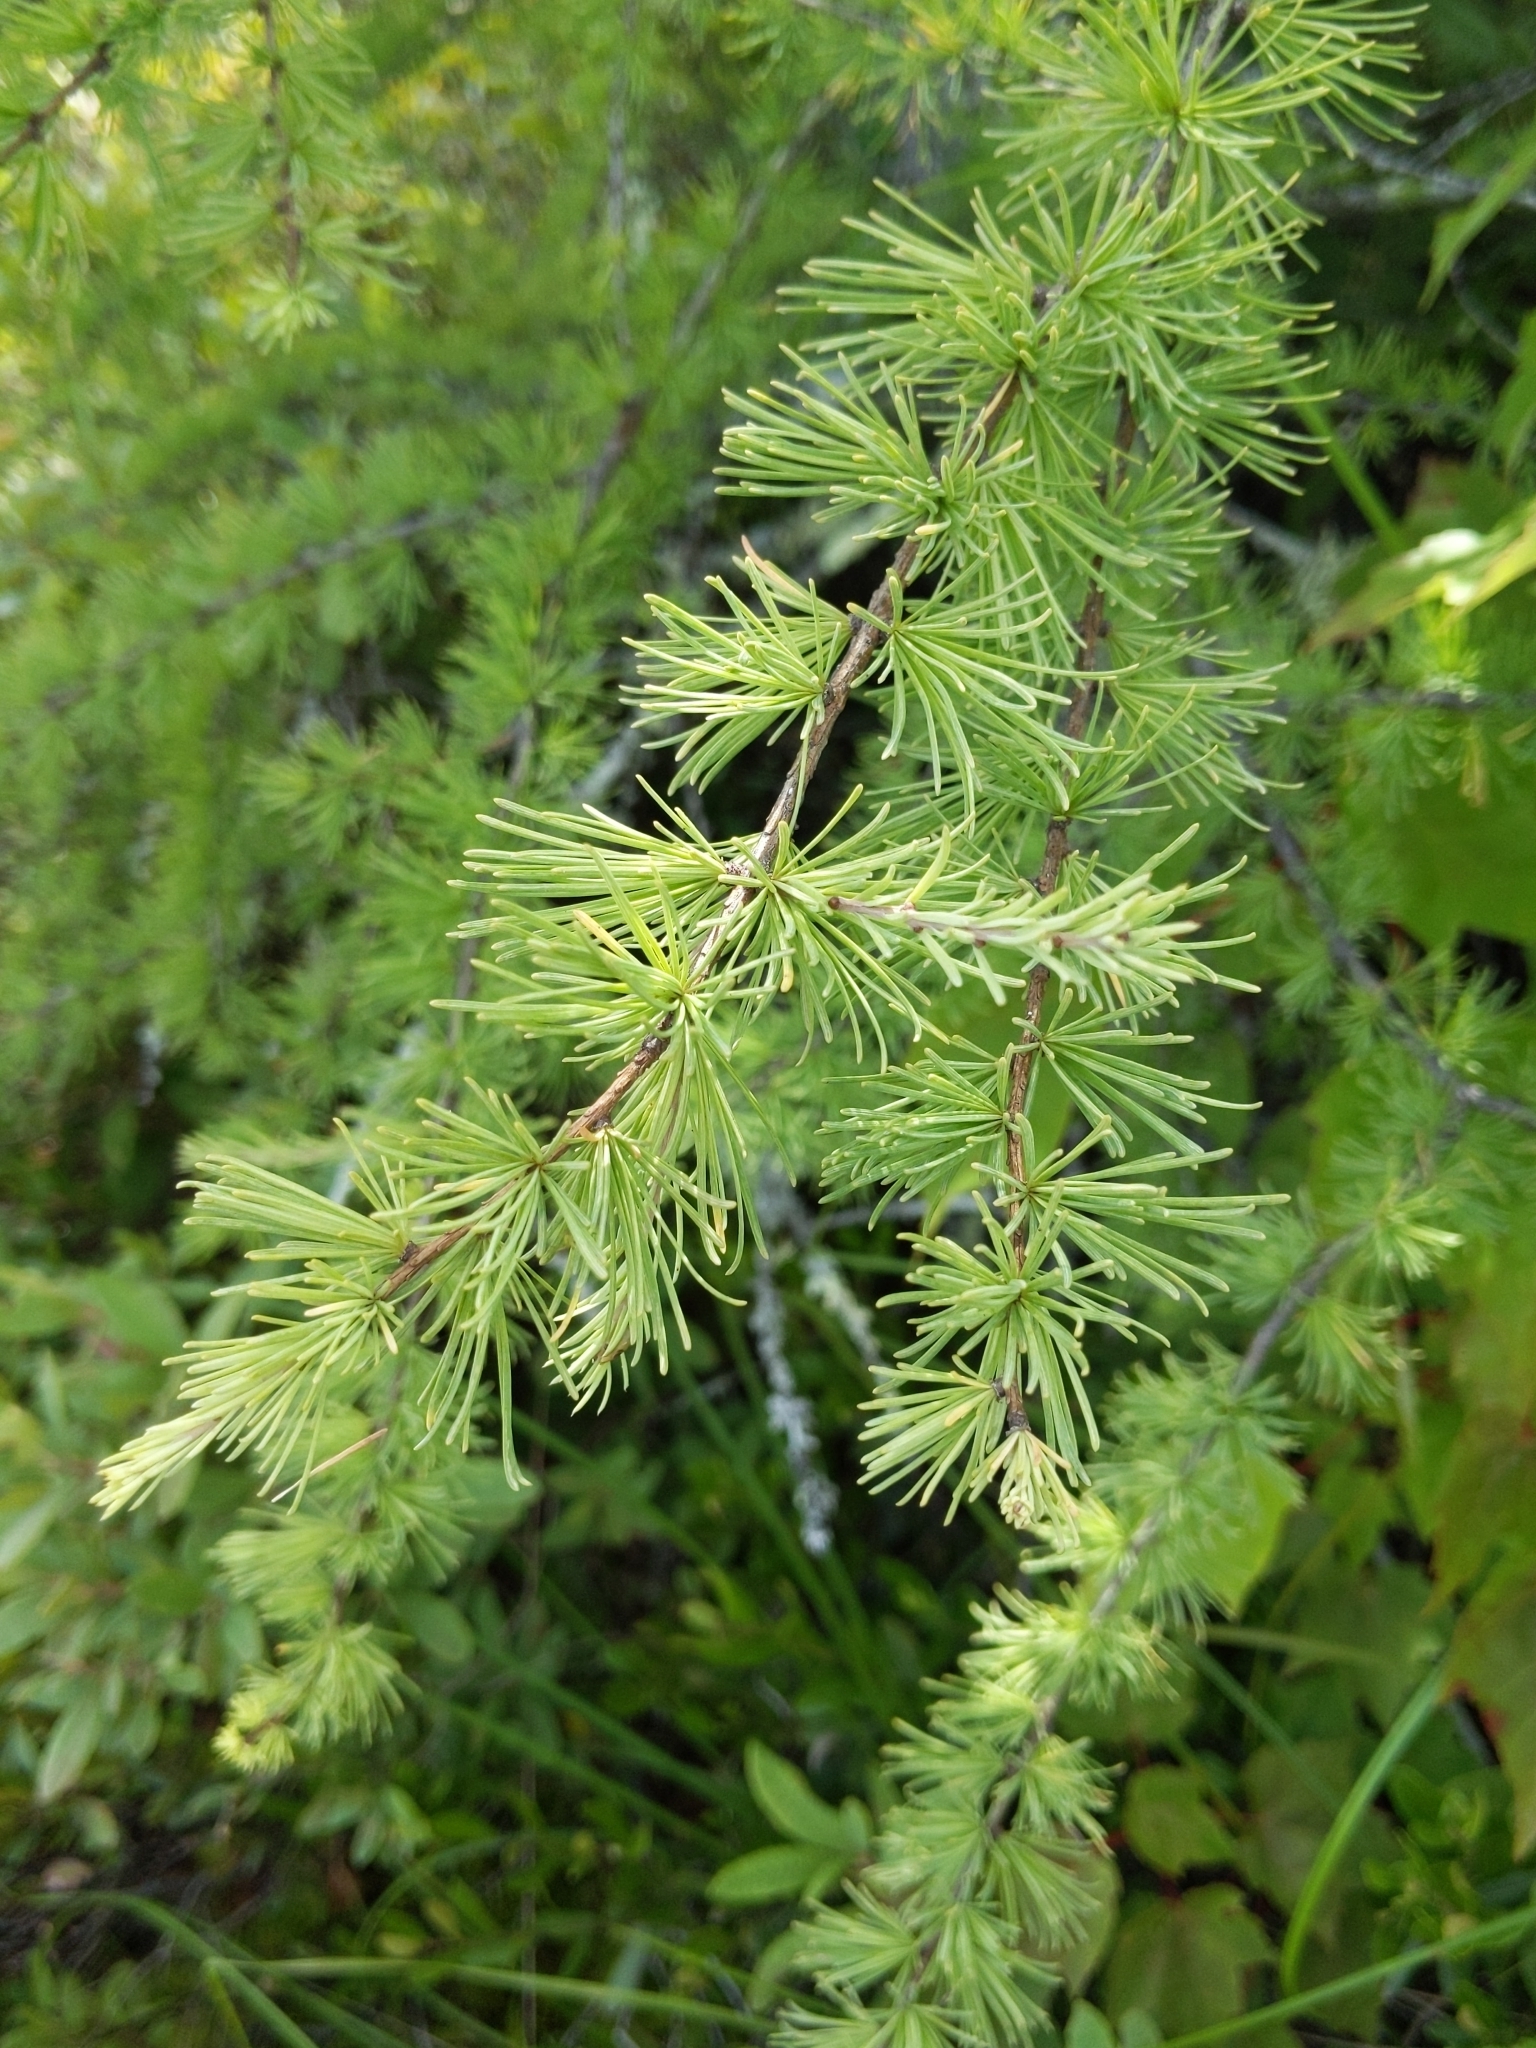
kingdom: Plantae
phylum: Tracheophyta
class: Pinopsida
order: Pinales
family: Pinaceae
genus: Larix
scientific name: Larix laricina
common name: American larch
